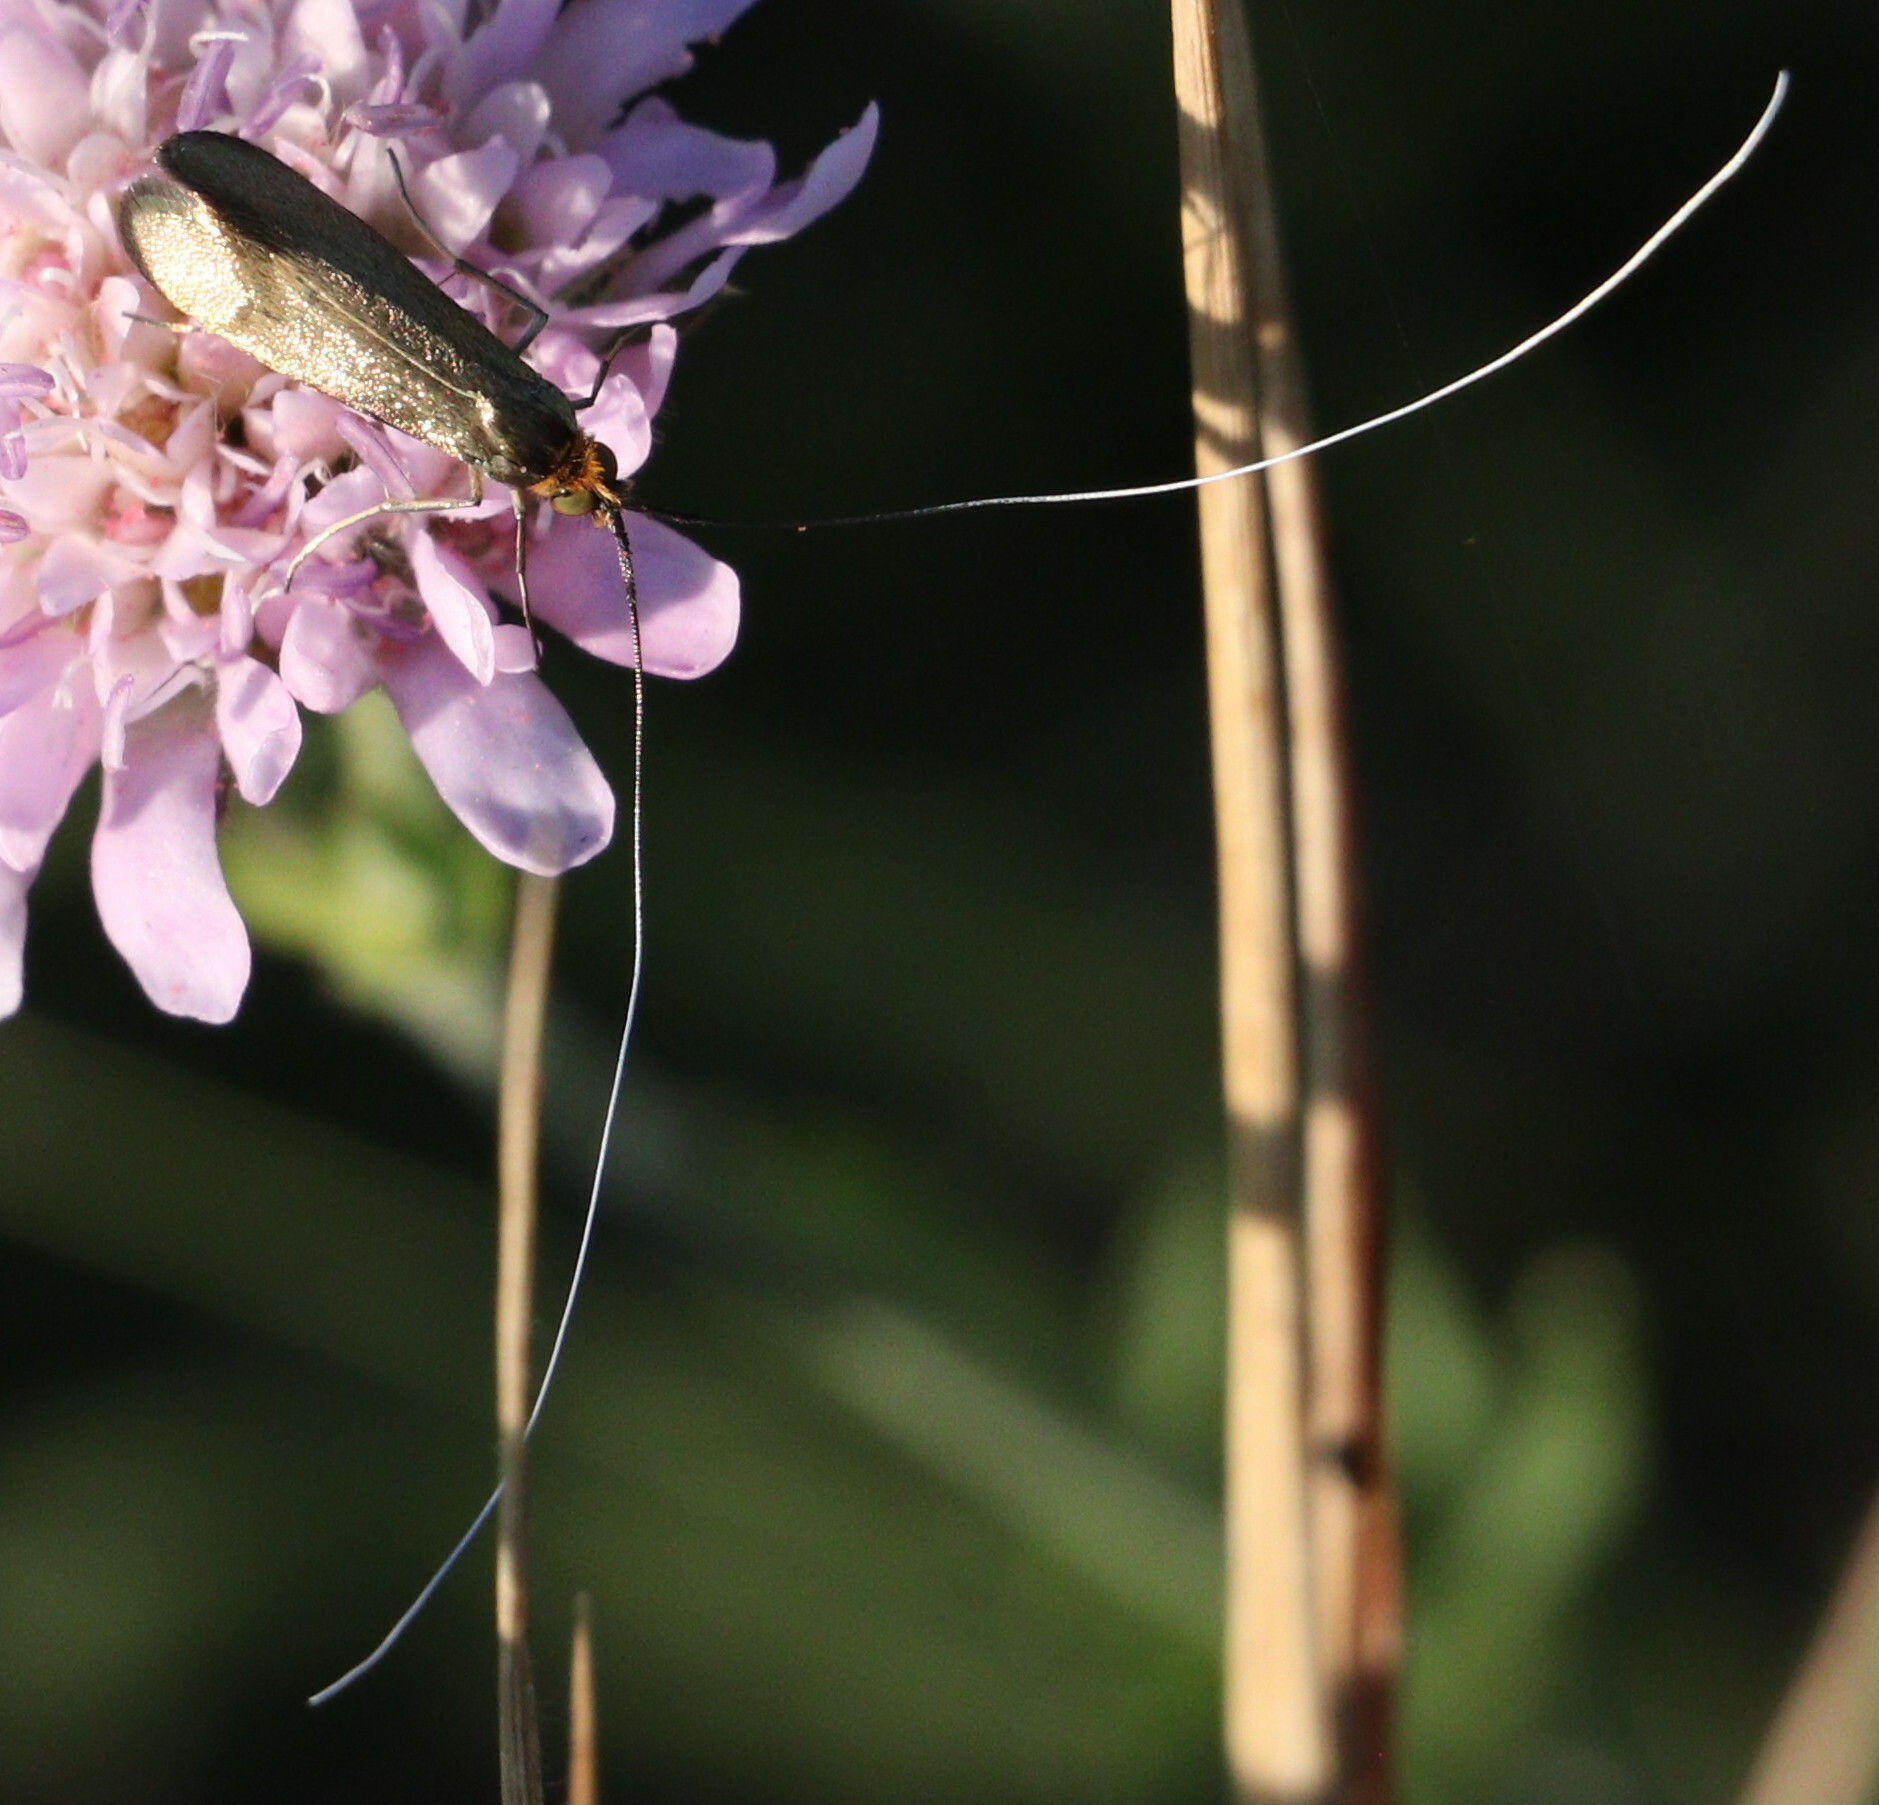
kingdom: Animalia
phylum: Arthropoda
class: Insecta
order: Lepidoptera
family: Adelidae
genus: Nemophora
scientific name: Nemophora metallica
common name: Brassy long-horn
